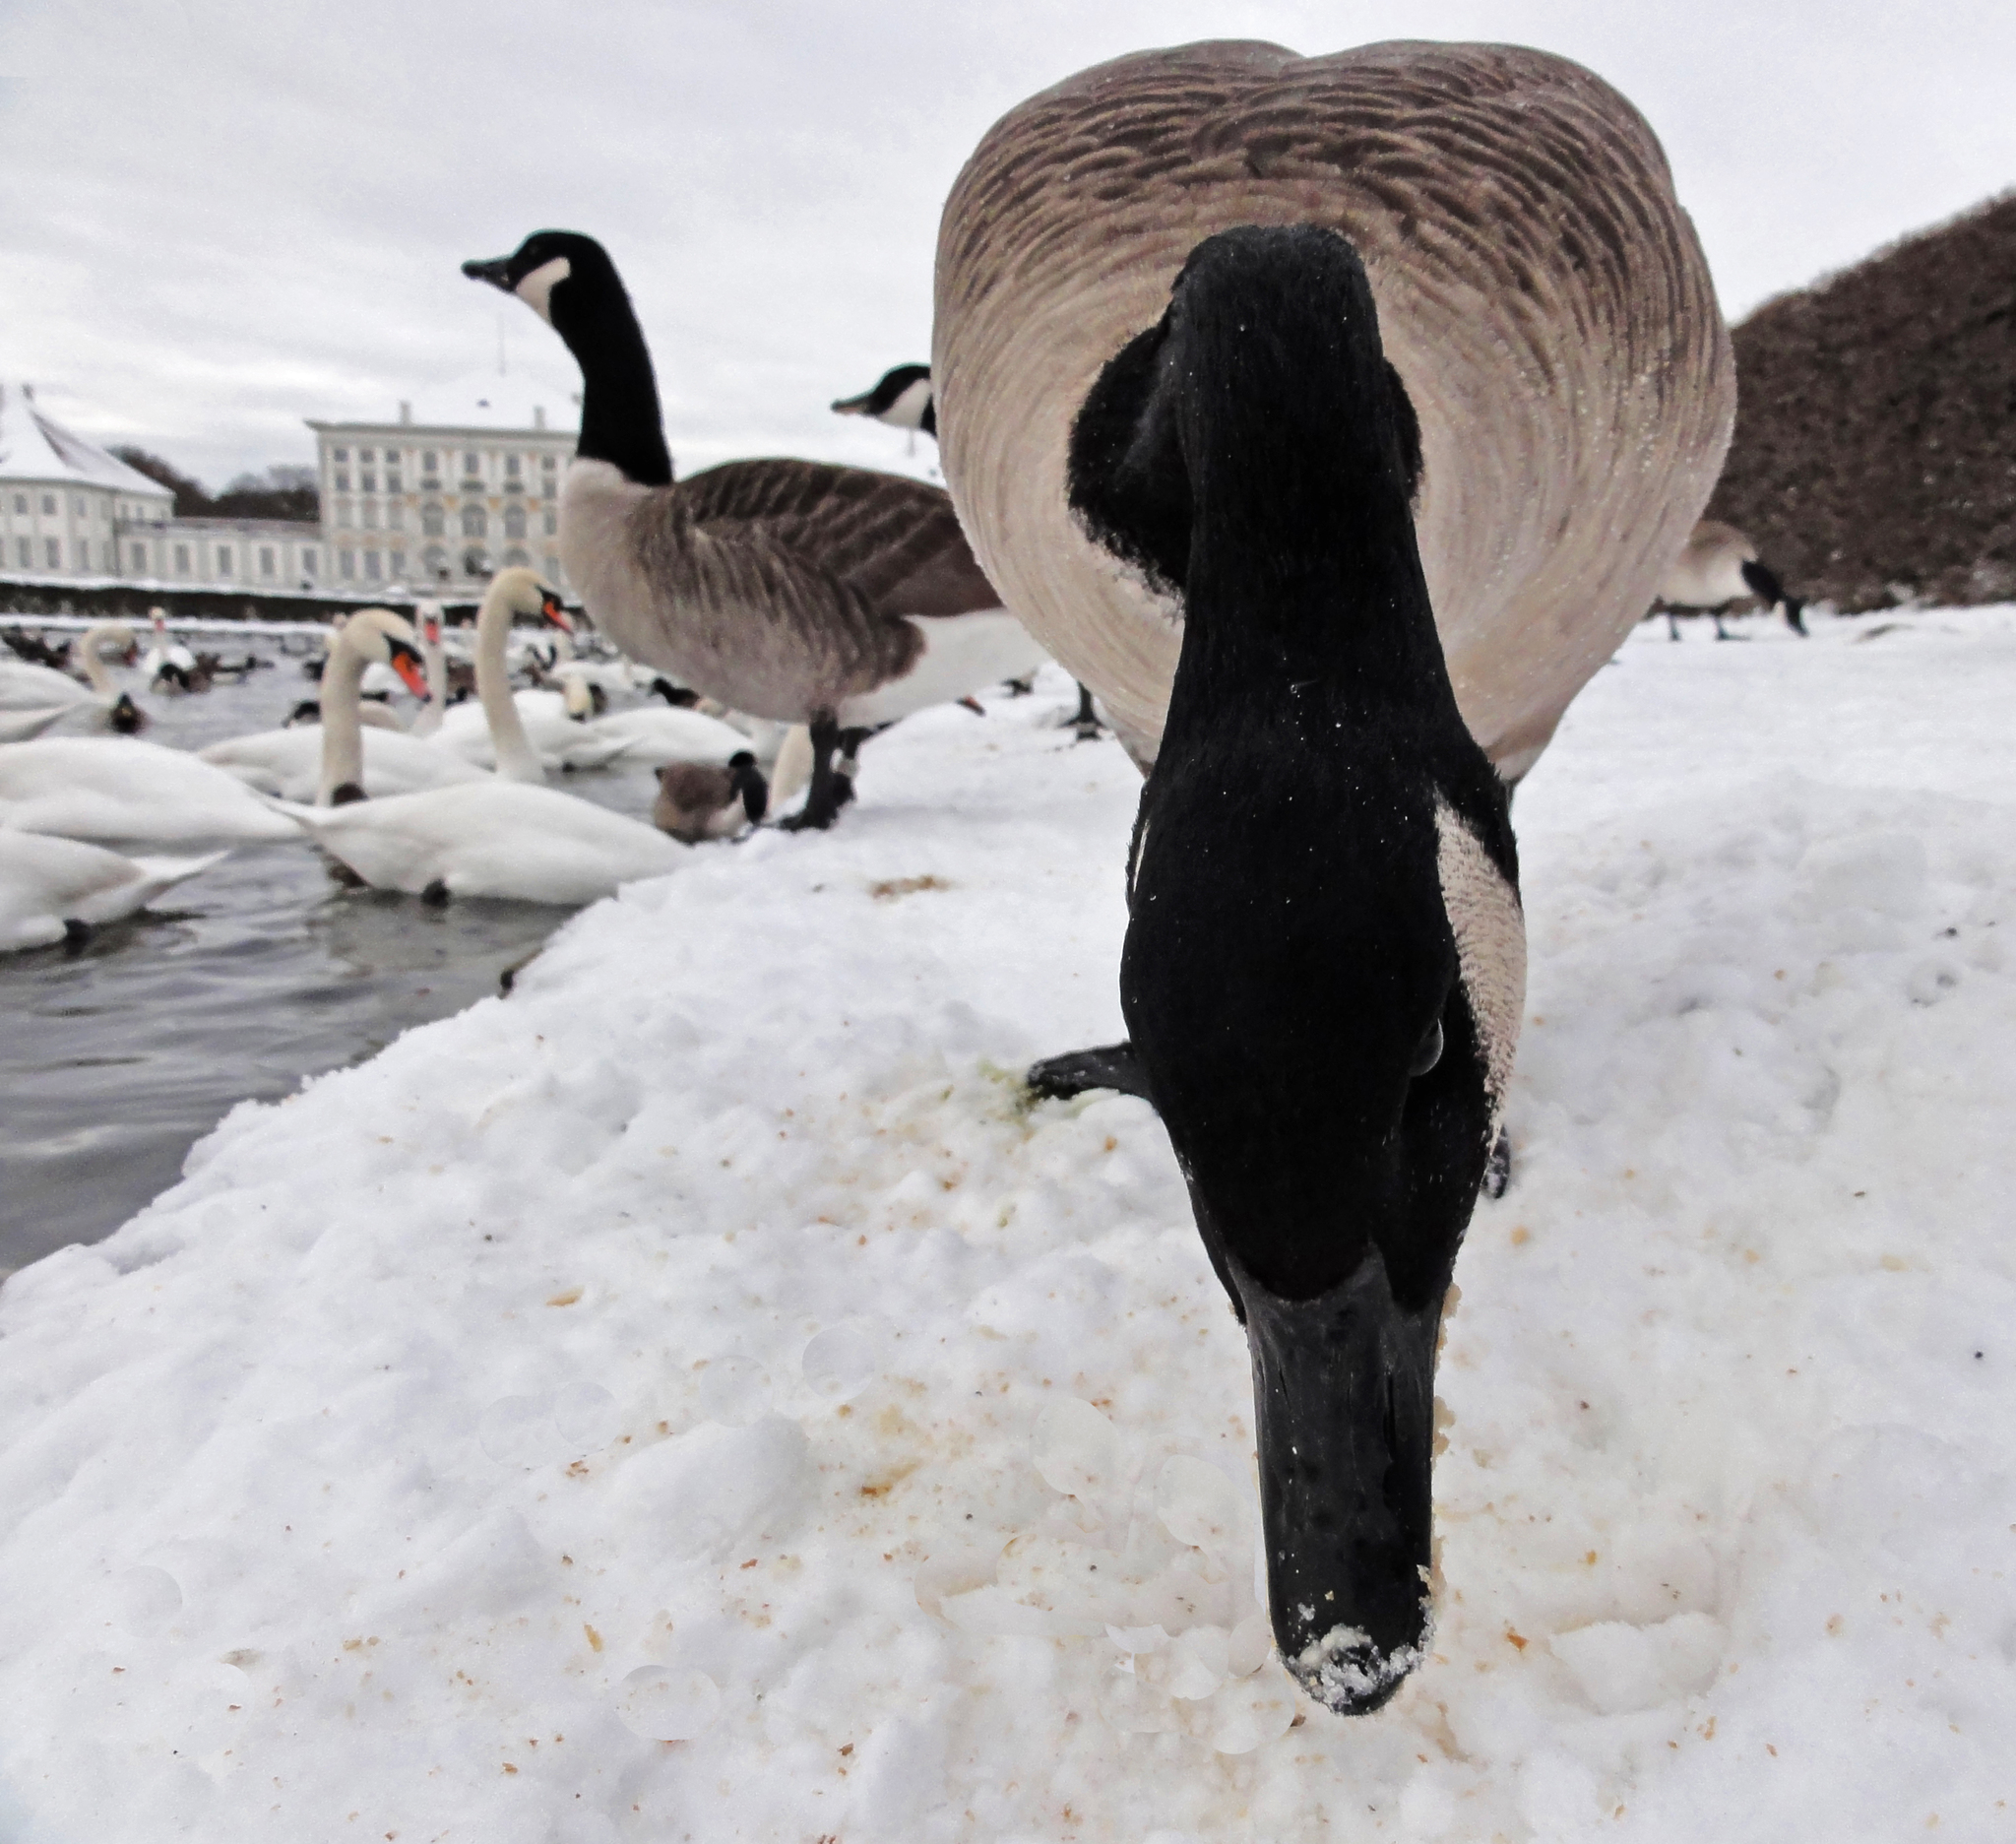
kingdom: Animalia
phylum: Chordata
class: Aves
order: Anseriformes
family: Anatidae
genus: Branta
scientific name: Branta canadensis
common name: Canada goose
